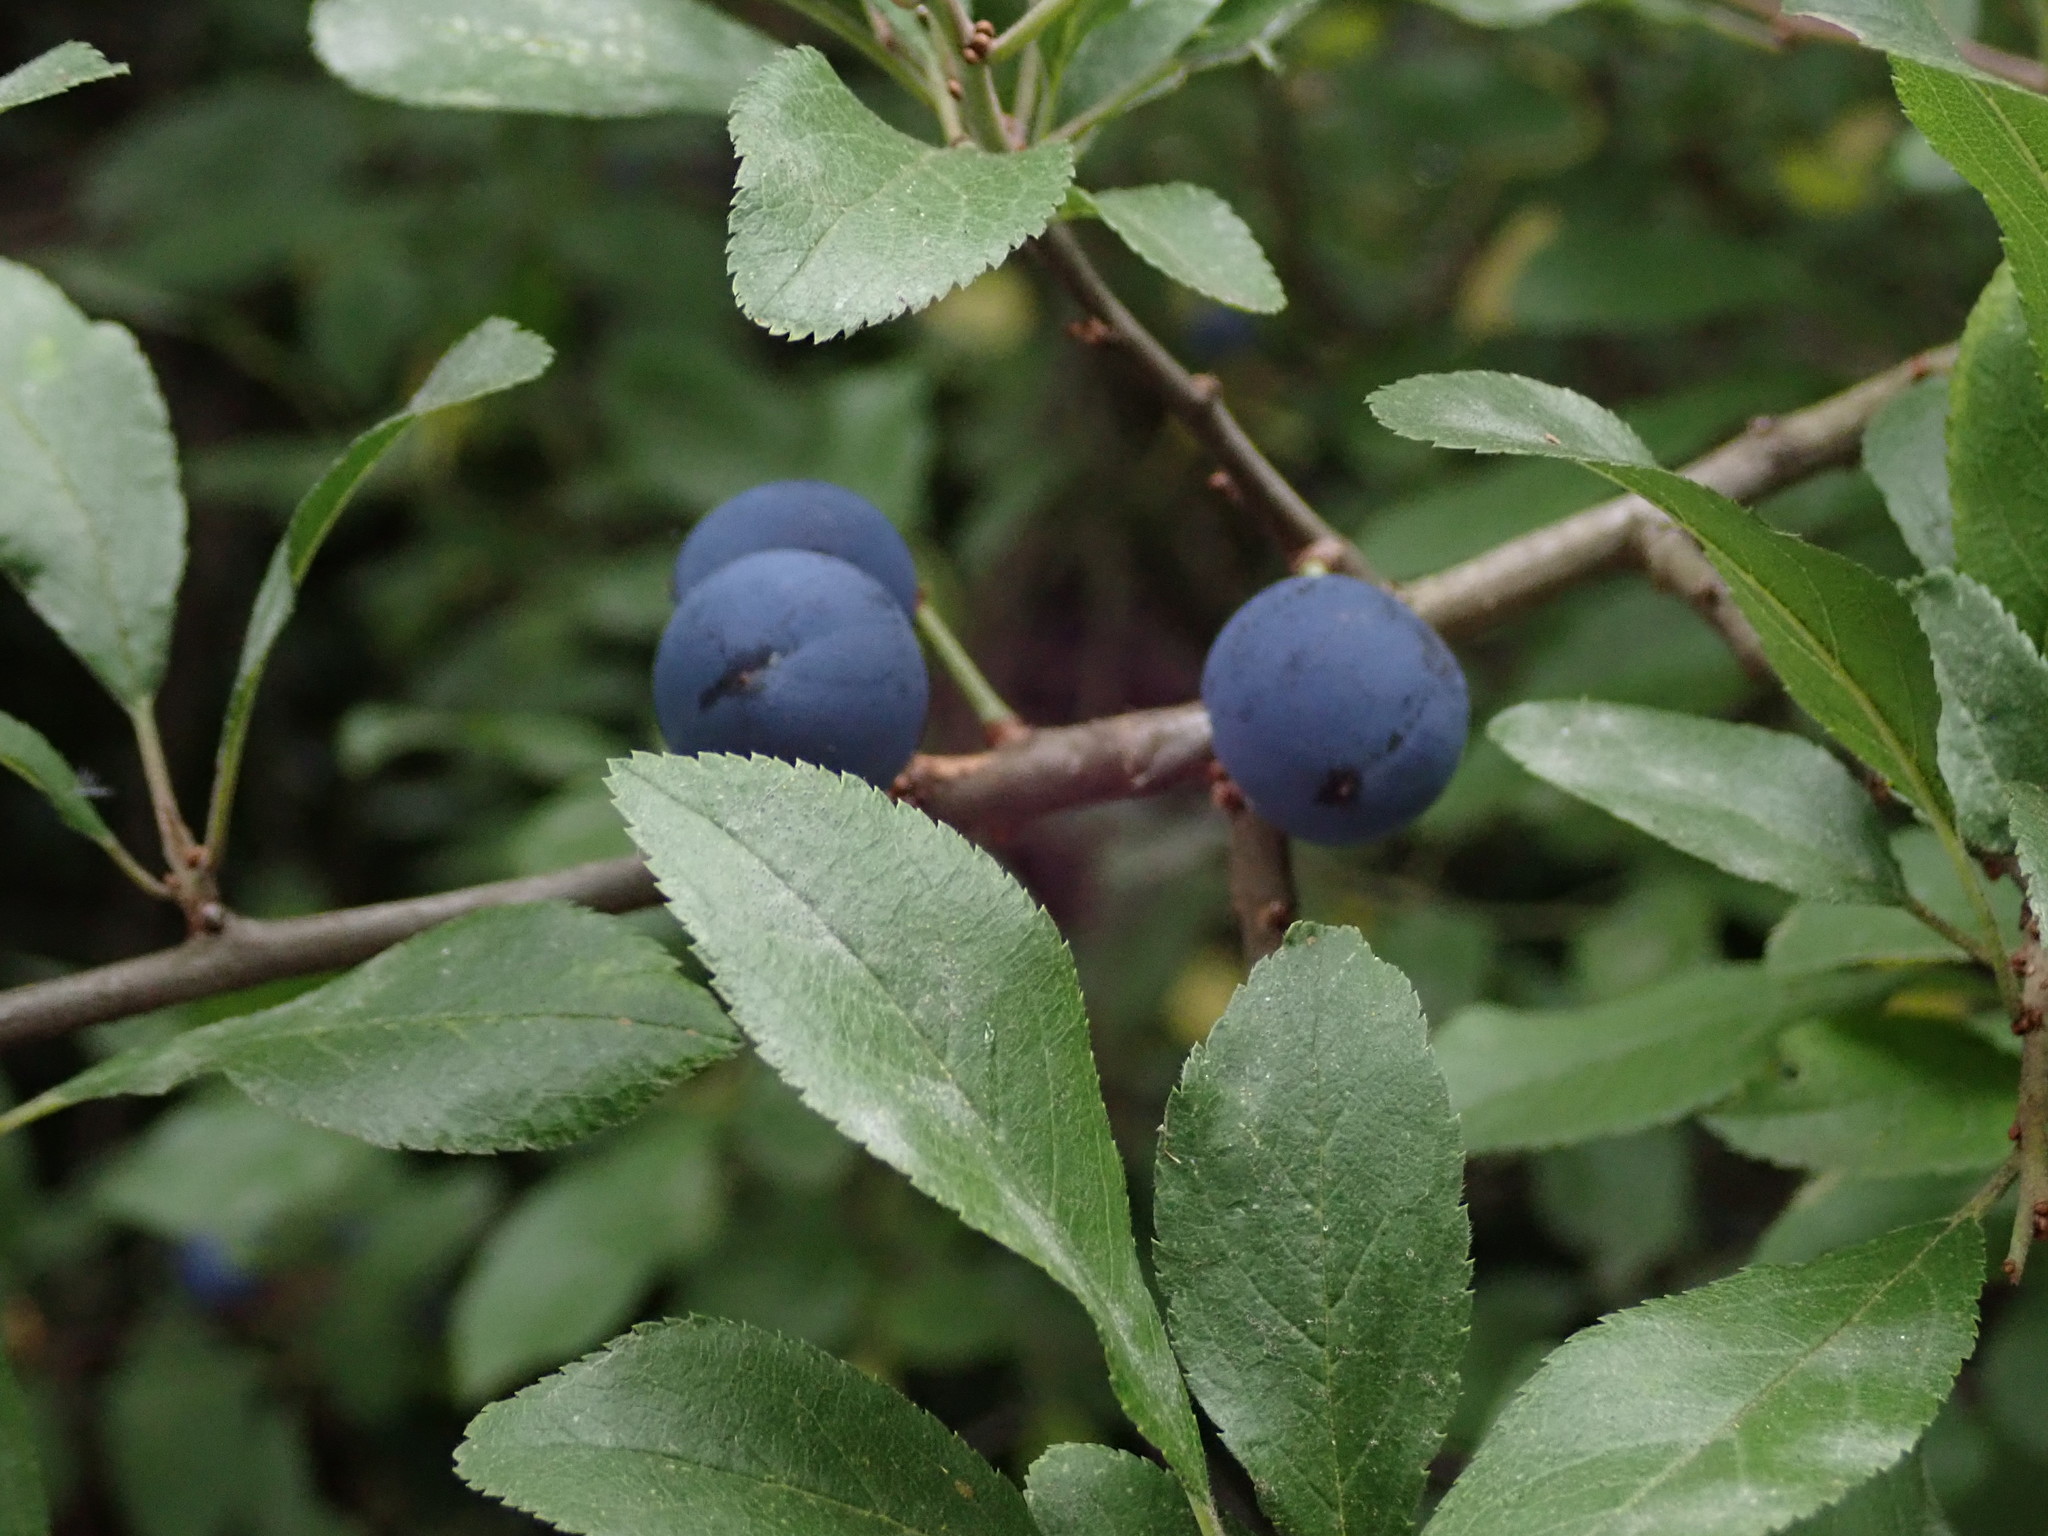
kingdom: Plantae
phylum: Tracheophyta
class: Magnoliopsida
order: Rosales
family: Rosaceae
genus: Prunus
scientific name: Prunus spinosa
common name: Blackthorn
